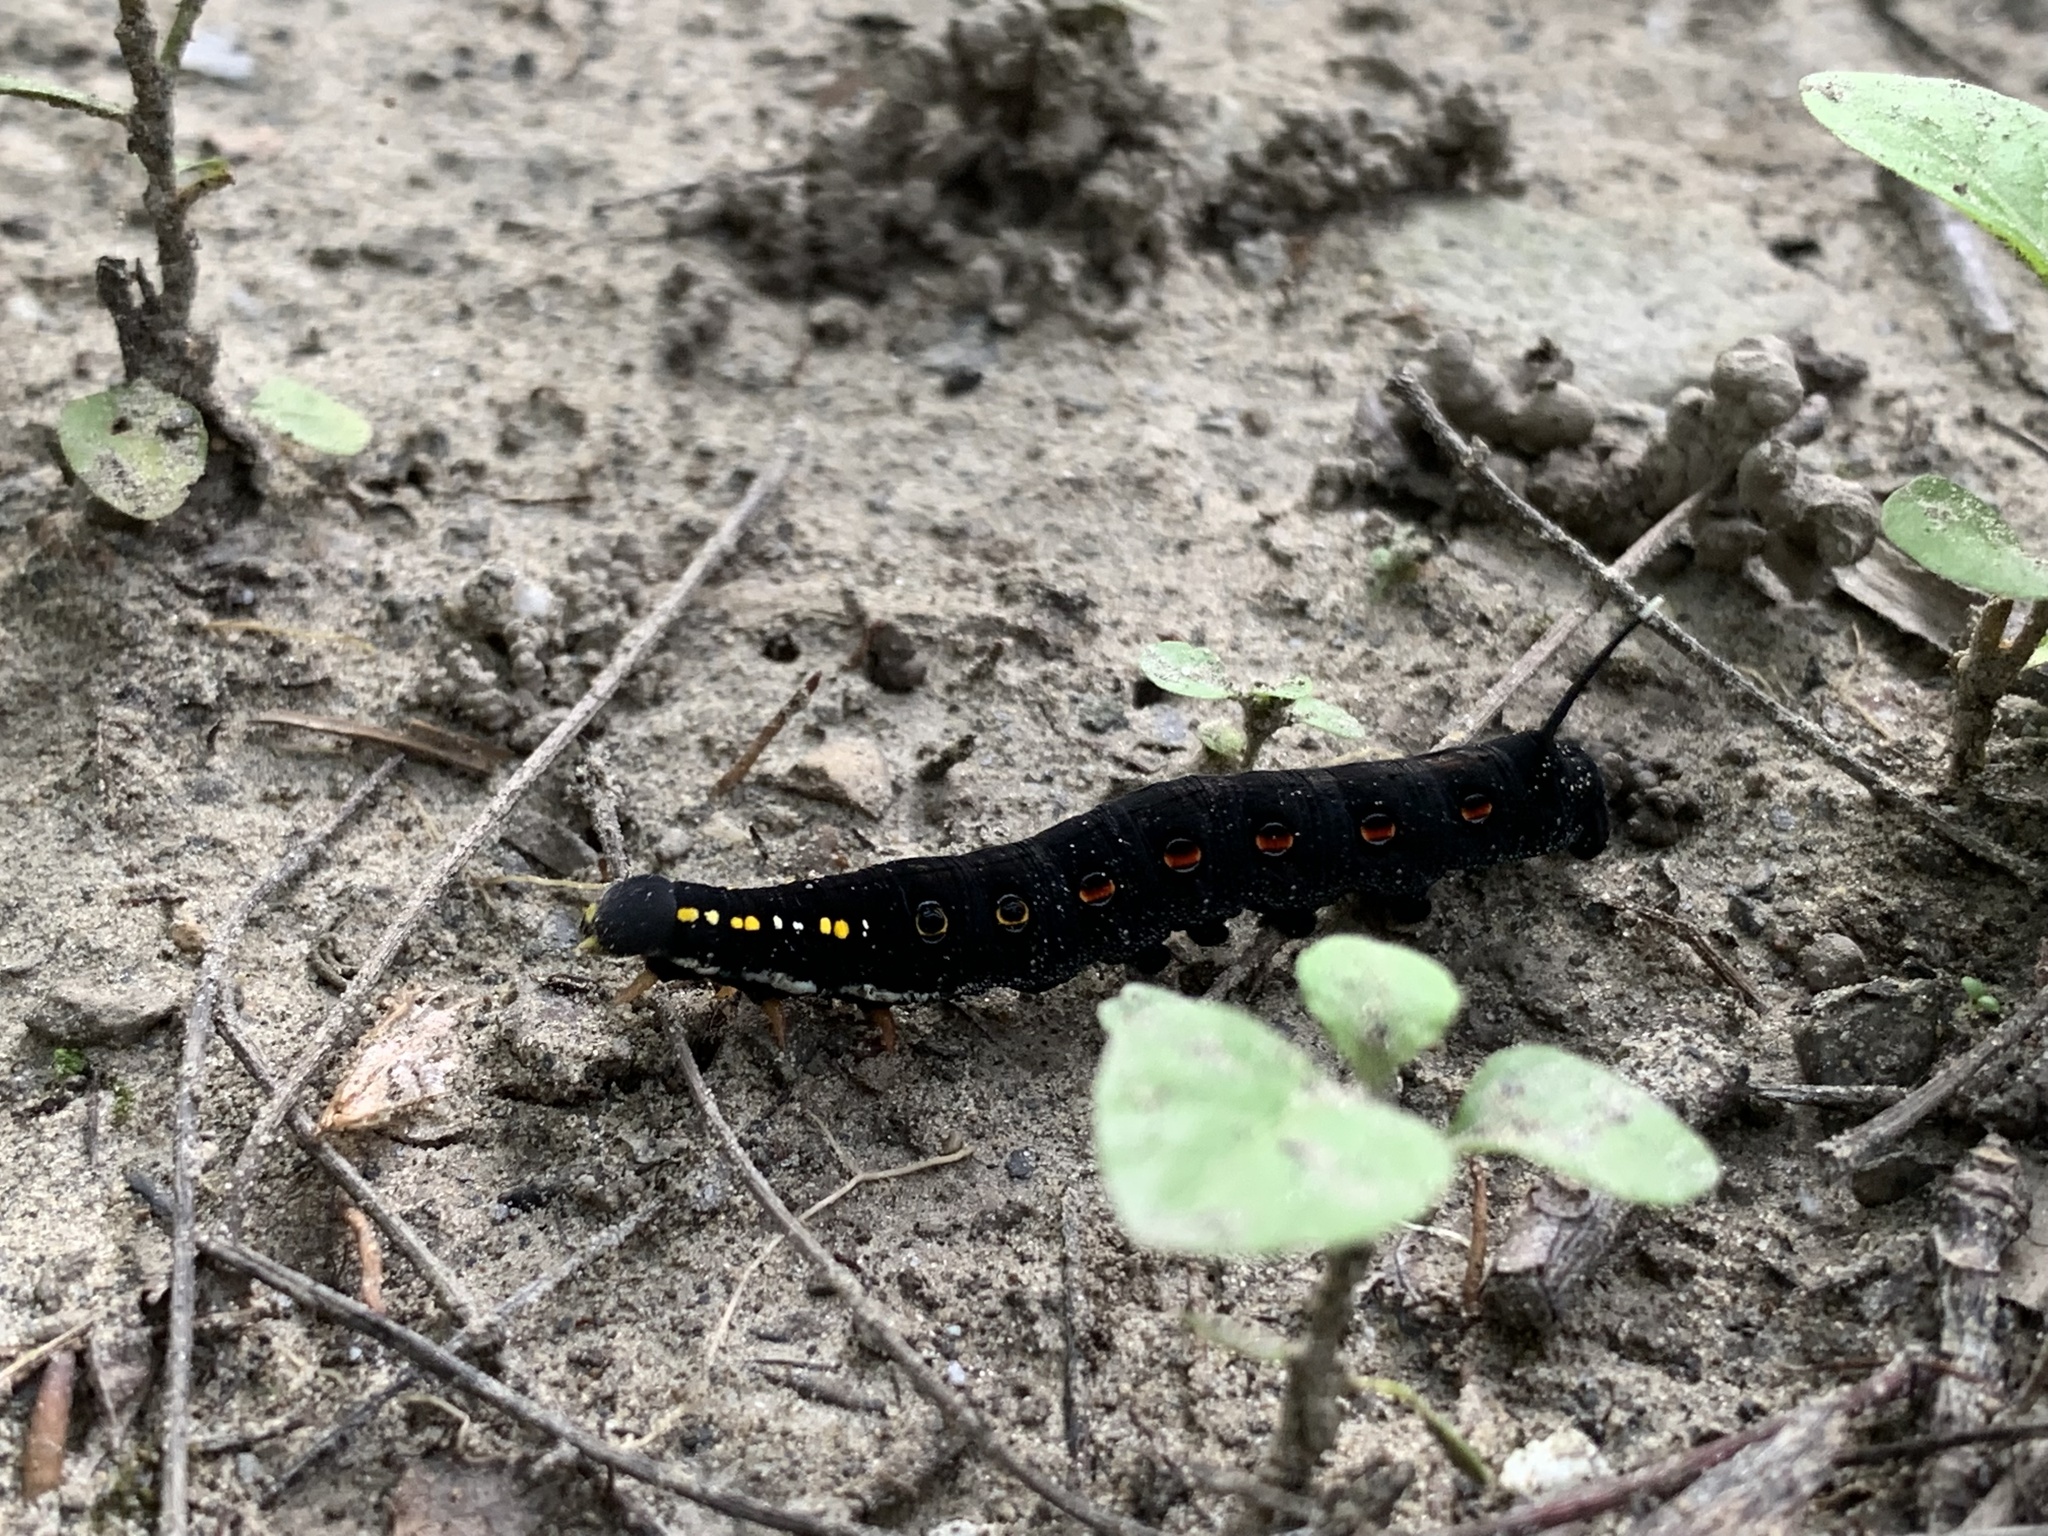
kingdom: Animalia
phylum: Arthropoda
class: Insecta
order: Lepidoptera
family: Sphingidae
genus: Theretra
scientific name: Theretra oldenlandiae
